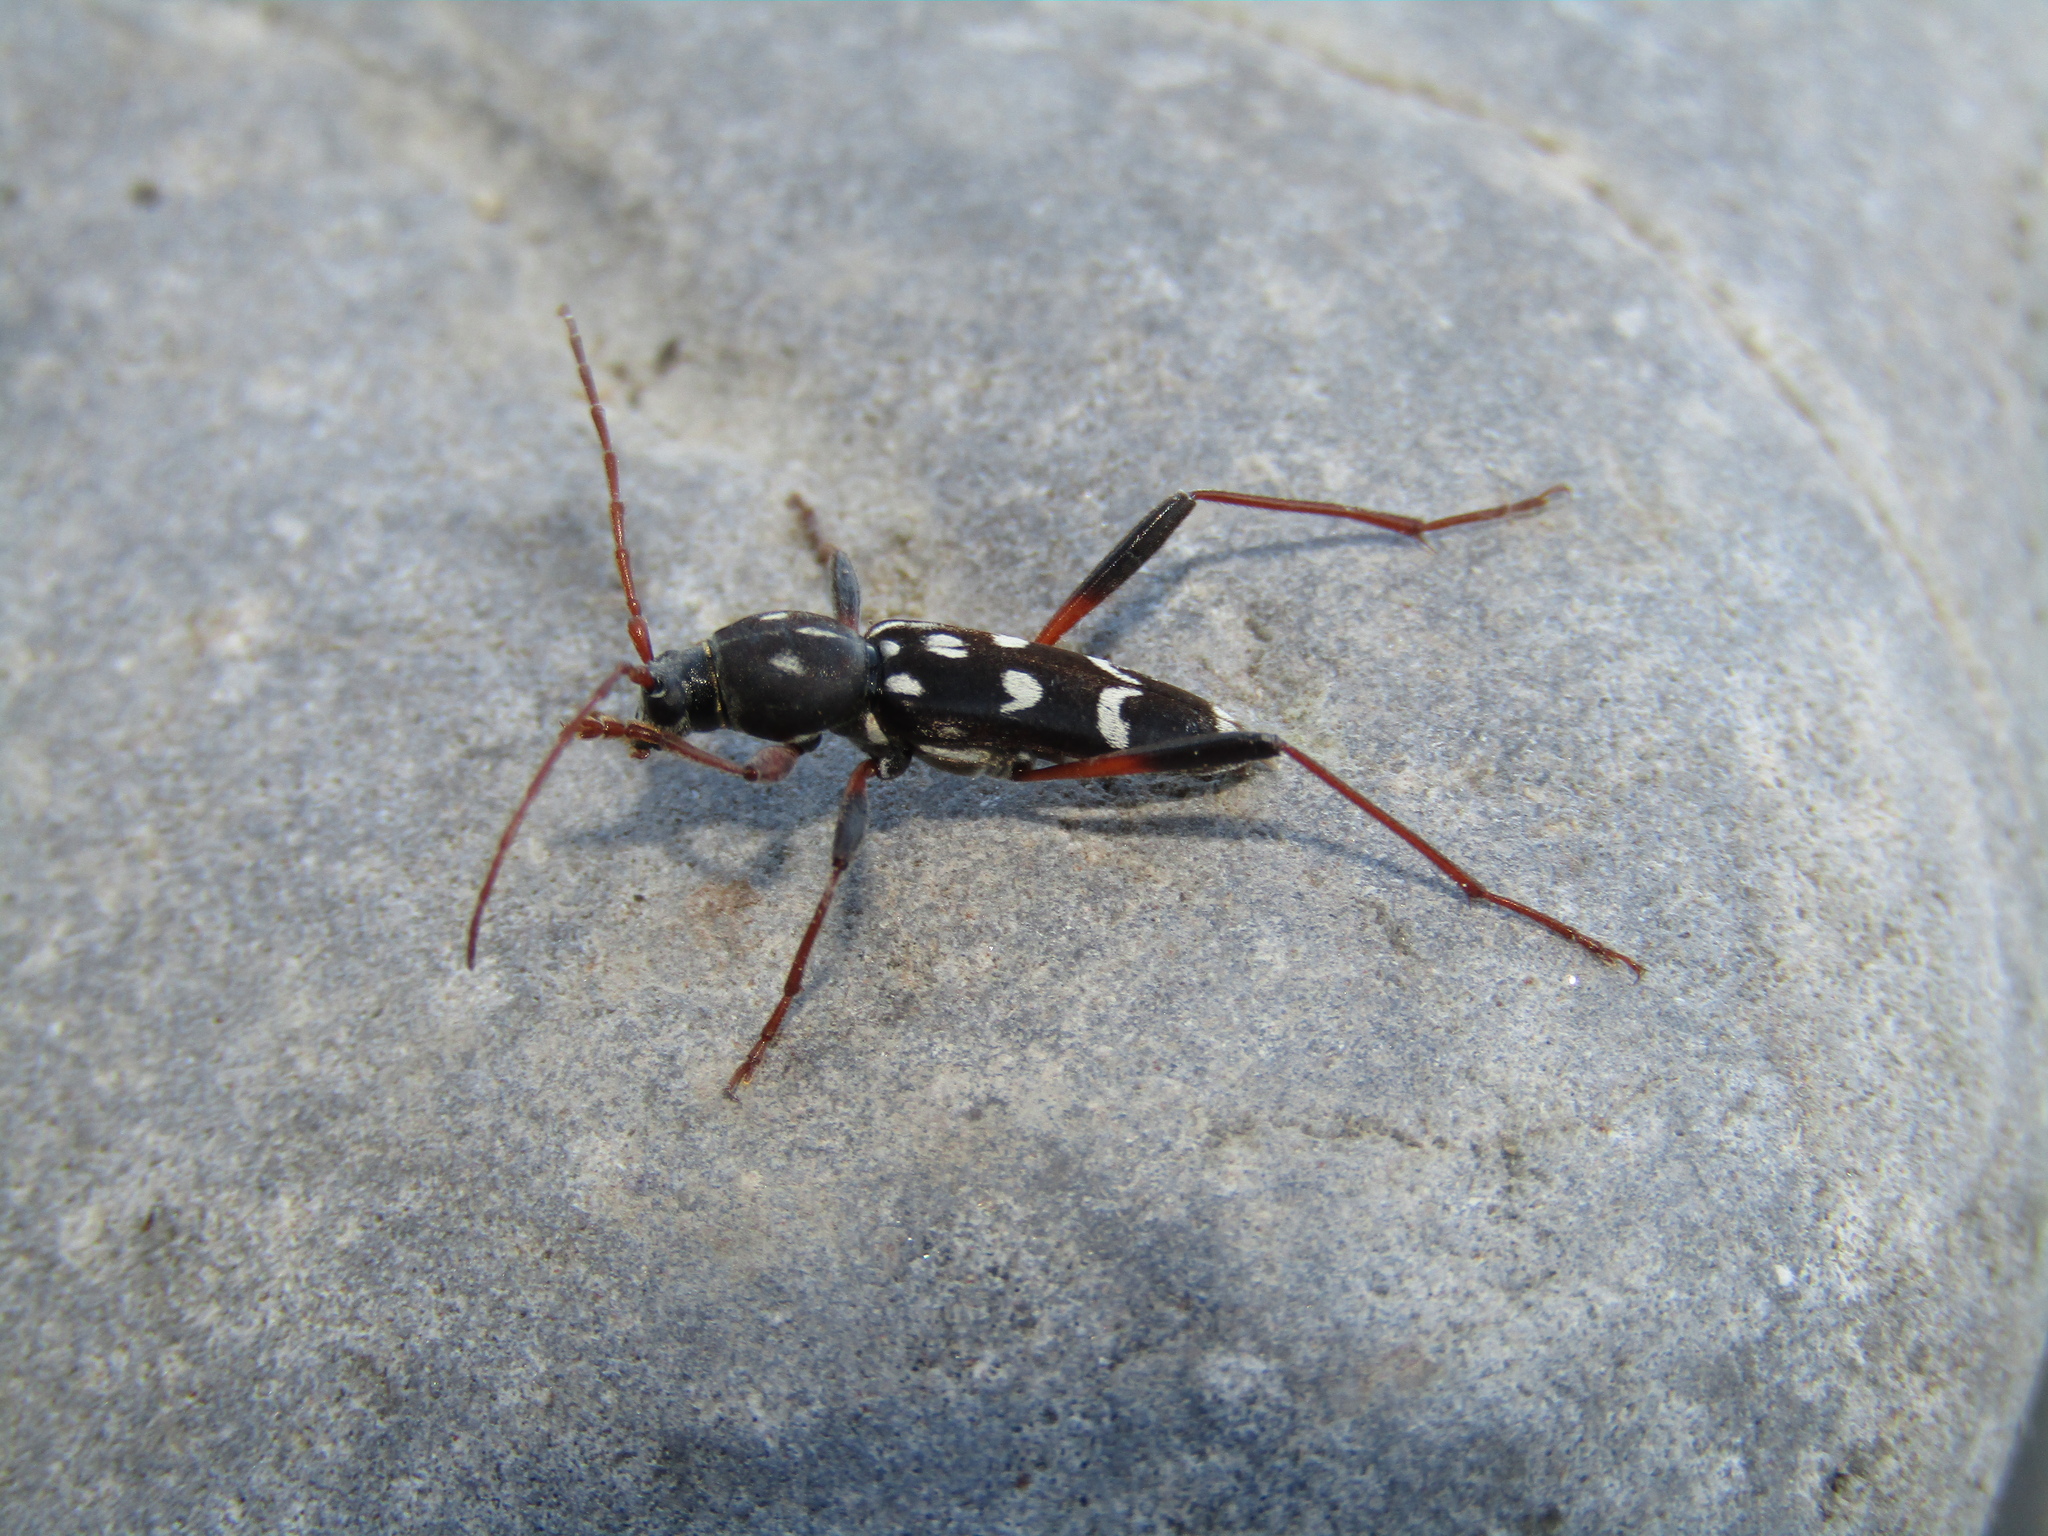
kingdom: Animalia
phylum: Arthropoda
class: Insecta
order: Coleoptera
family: Cerambycidae
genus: Isotomus
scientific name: Isotomus speciosus
